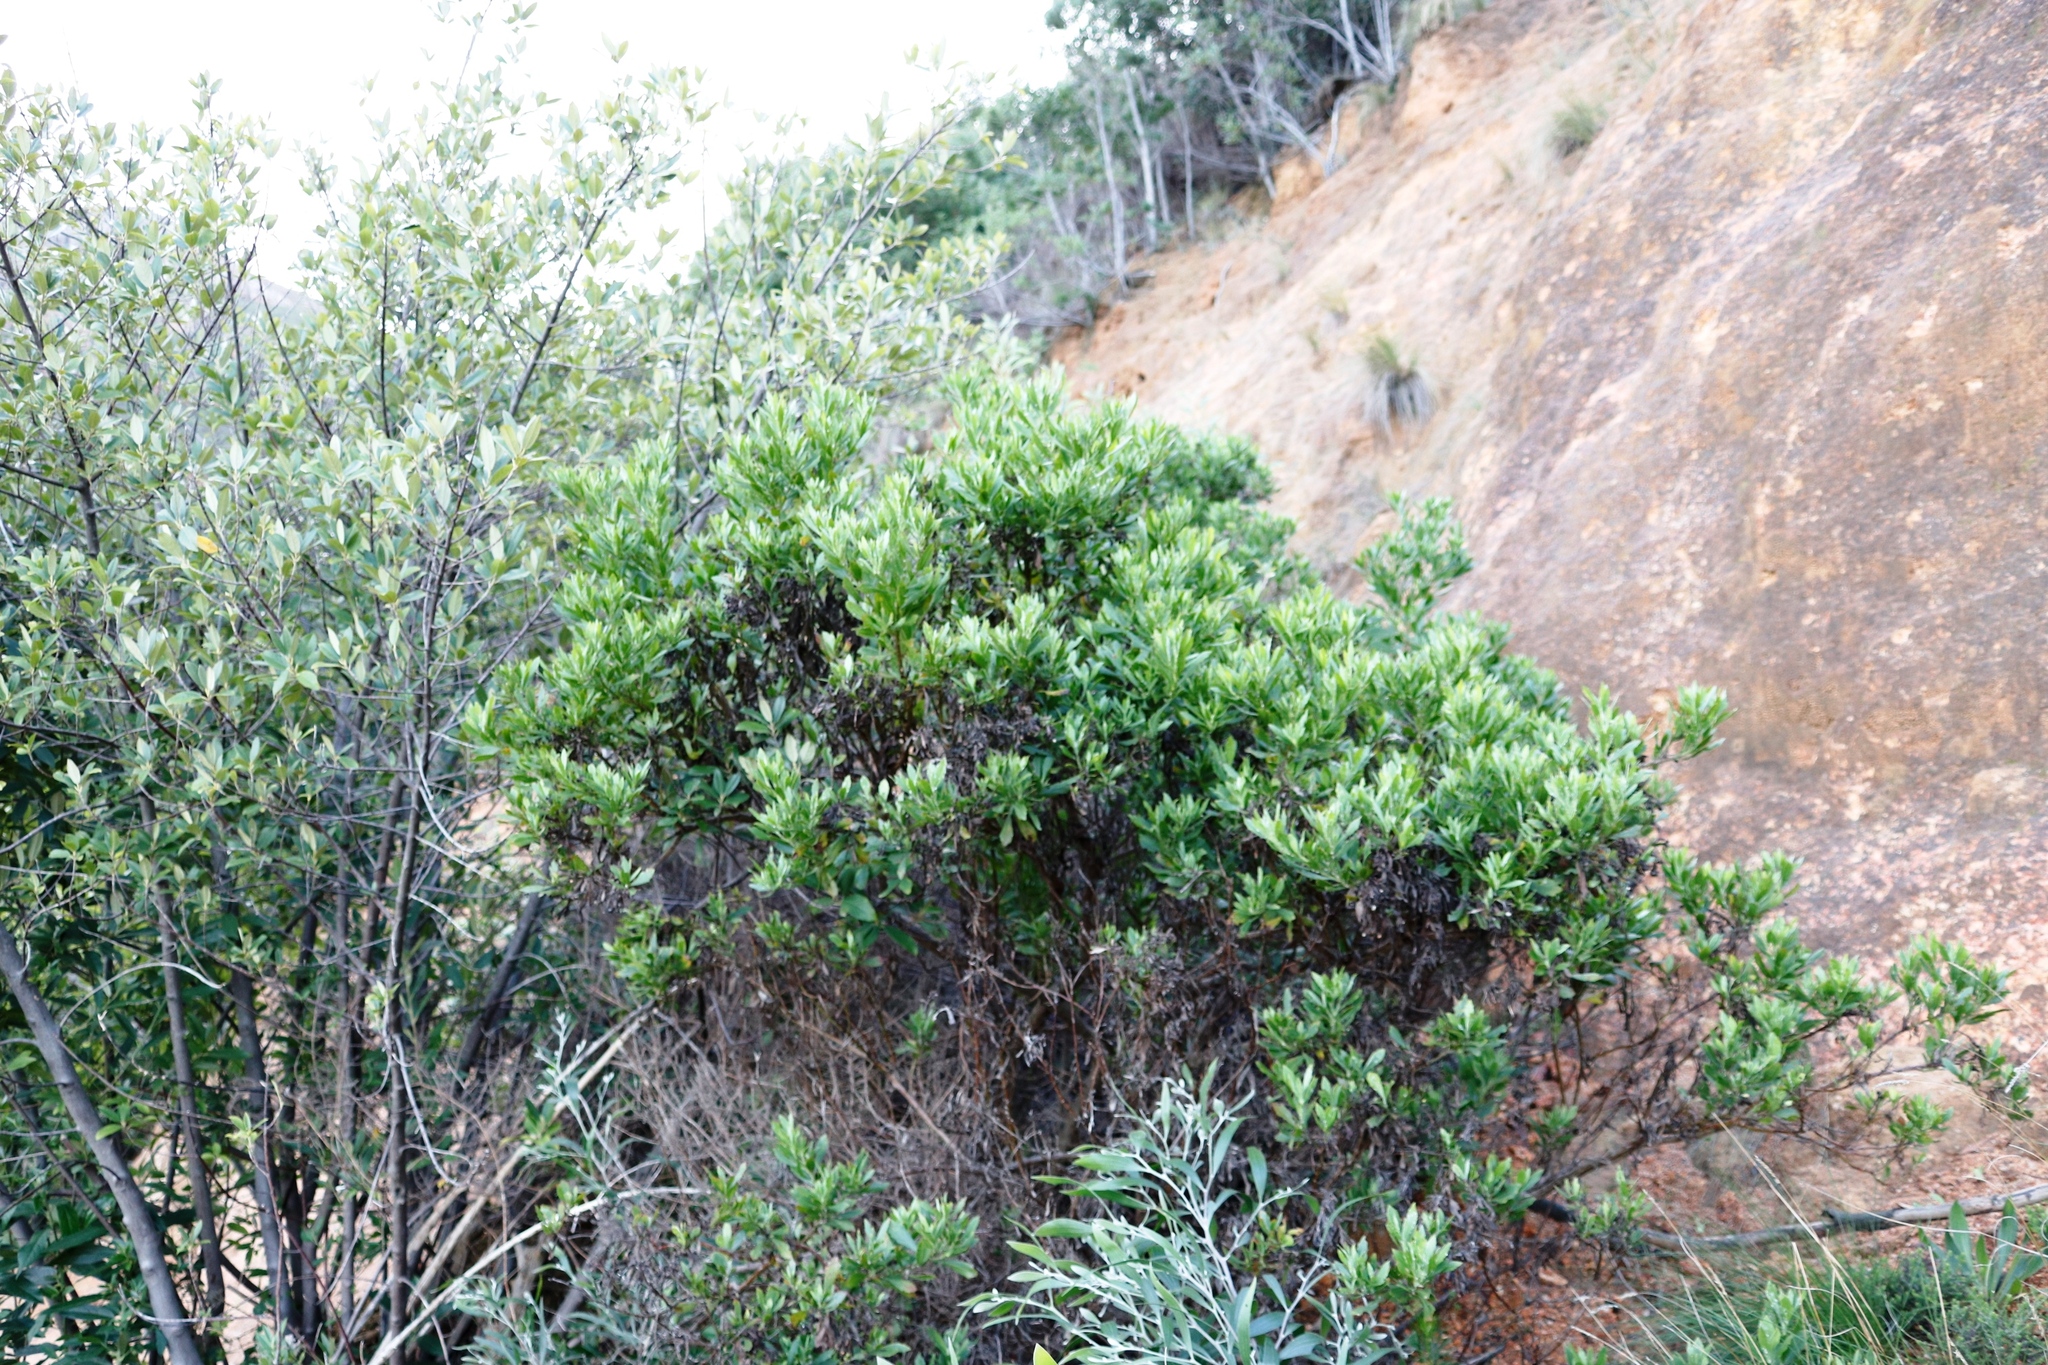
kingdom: Plantae
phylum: Tracheophyta
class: Magnoliopsida
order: Asterales
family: Asteraceae
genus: Osteospermum
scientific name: Osteospermum moniliferum
